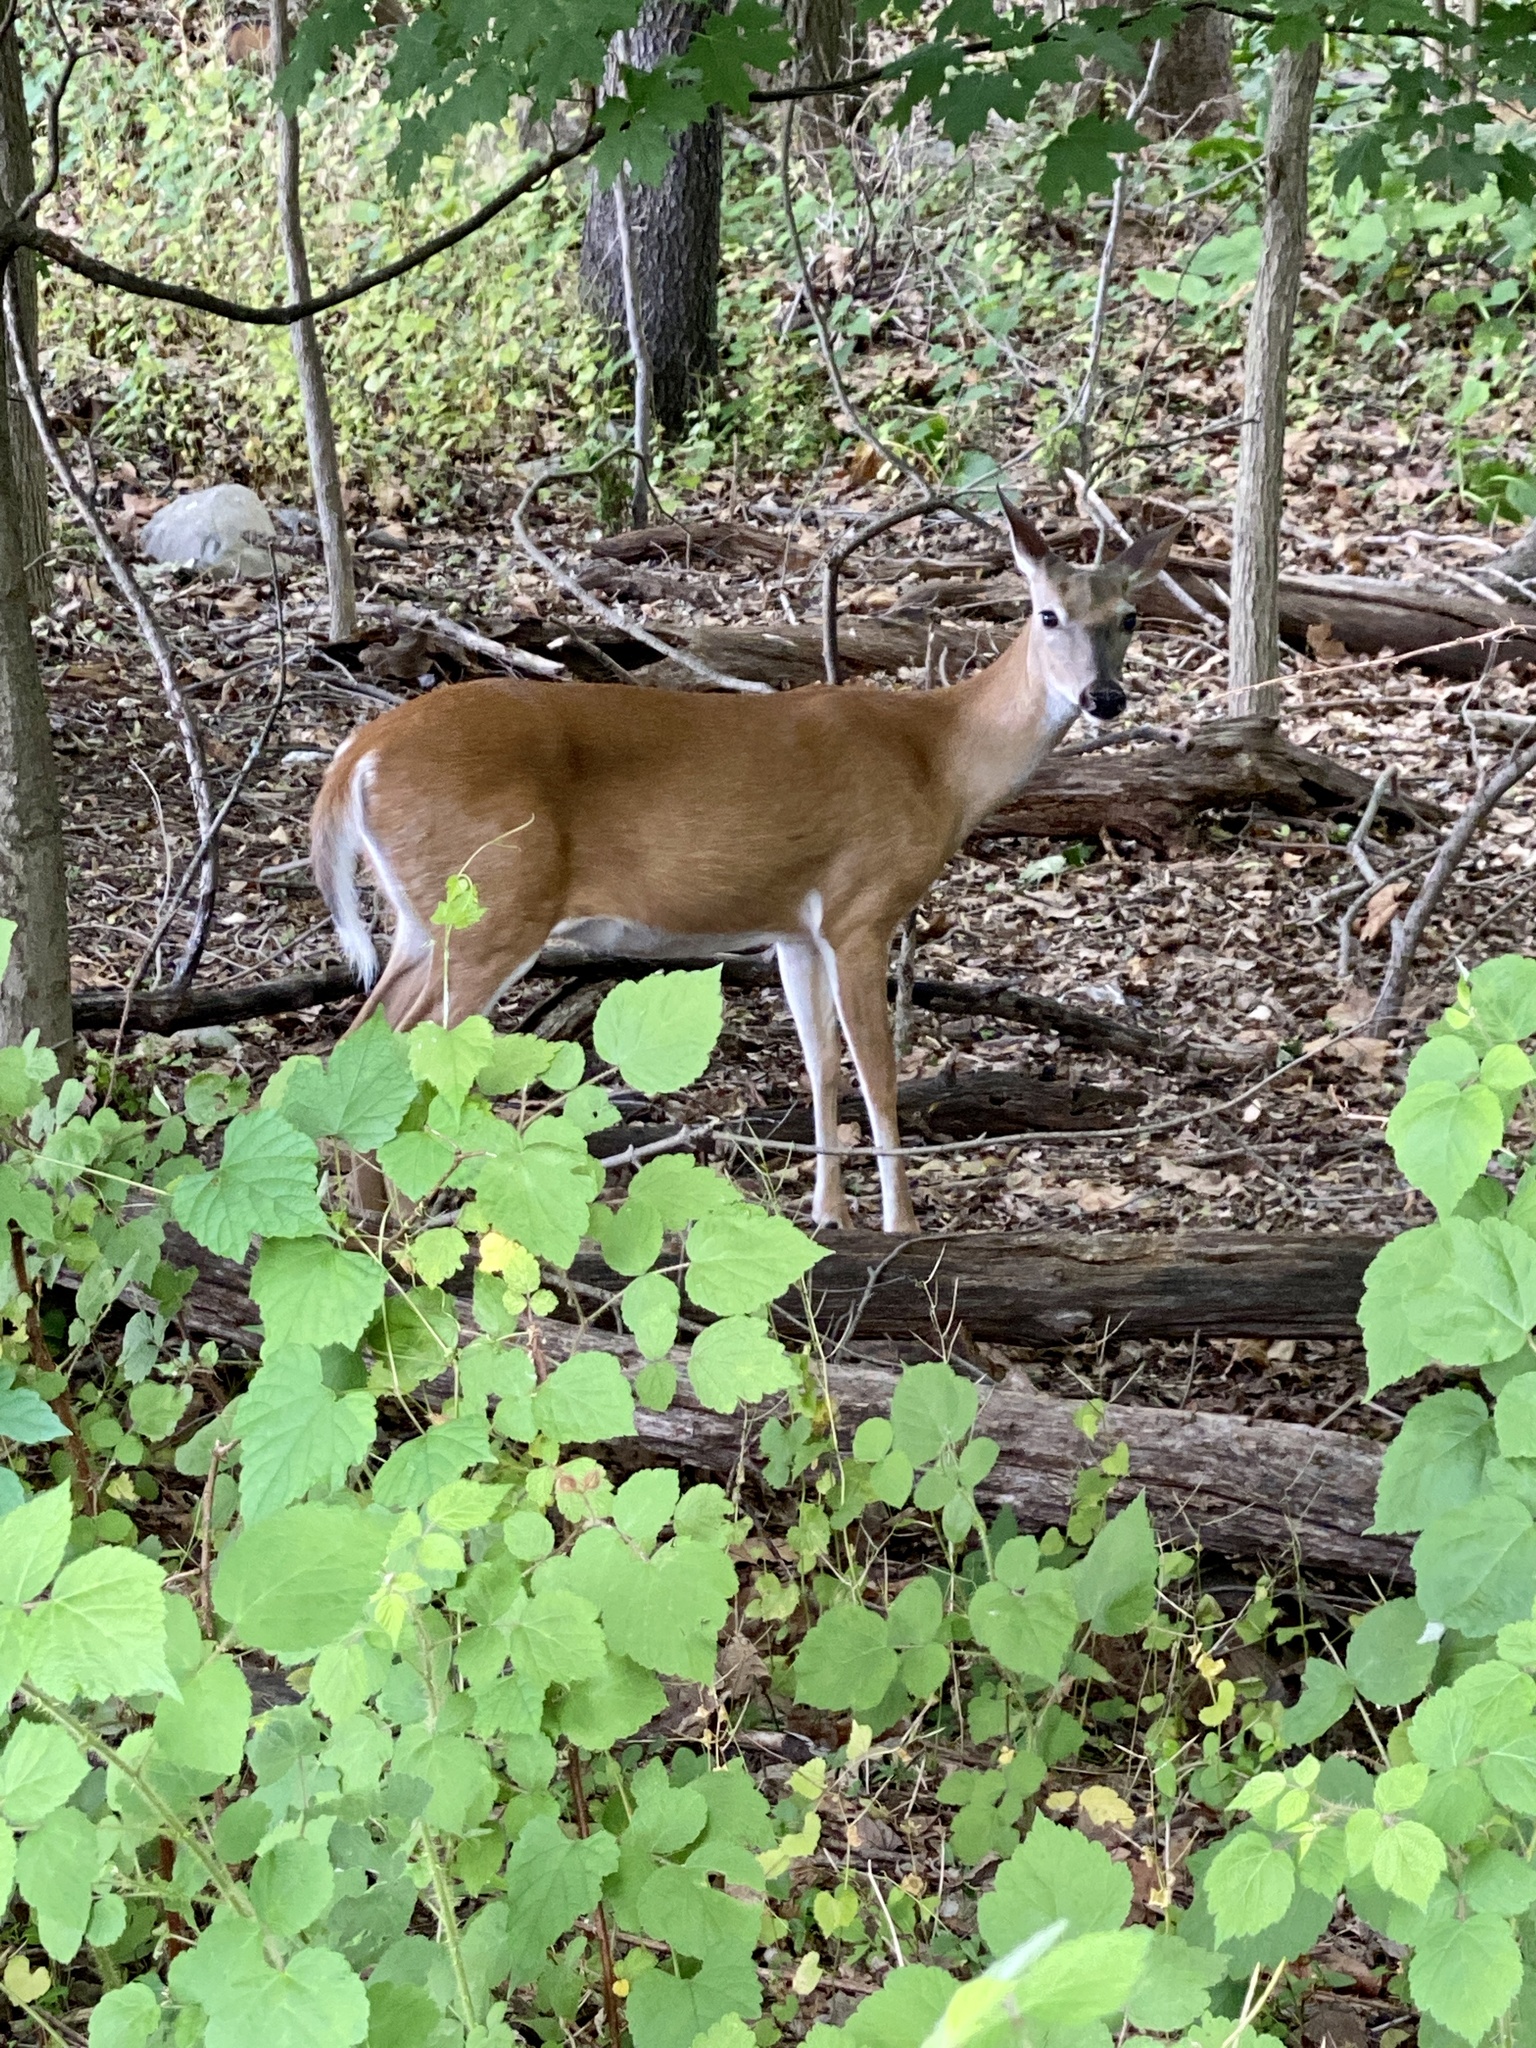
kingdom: Animalia
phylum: Chordata
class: Mammalia
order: Artiodactyla
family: Cervidae
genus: Odocoileus
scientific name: Odocoileus virginianus
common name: White-tailed deer
